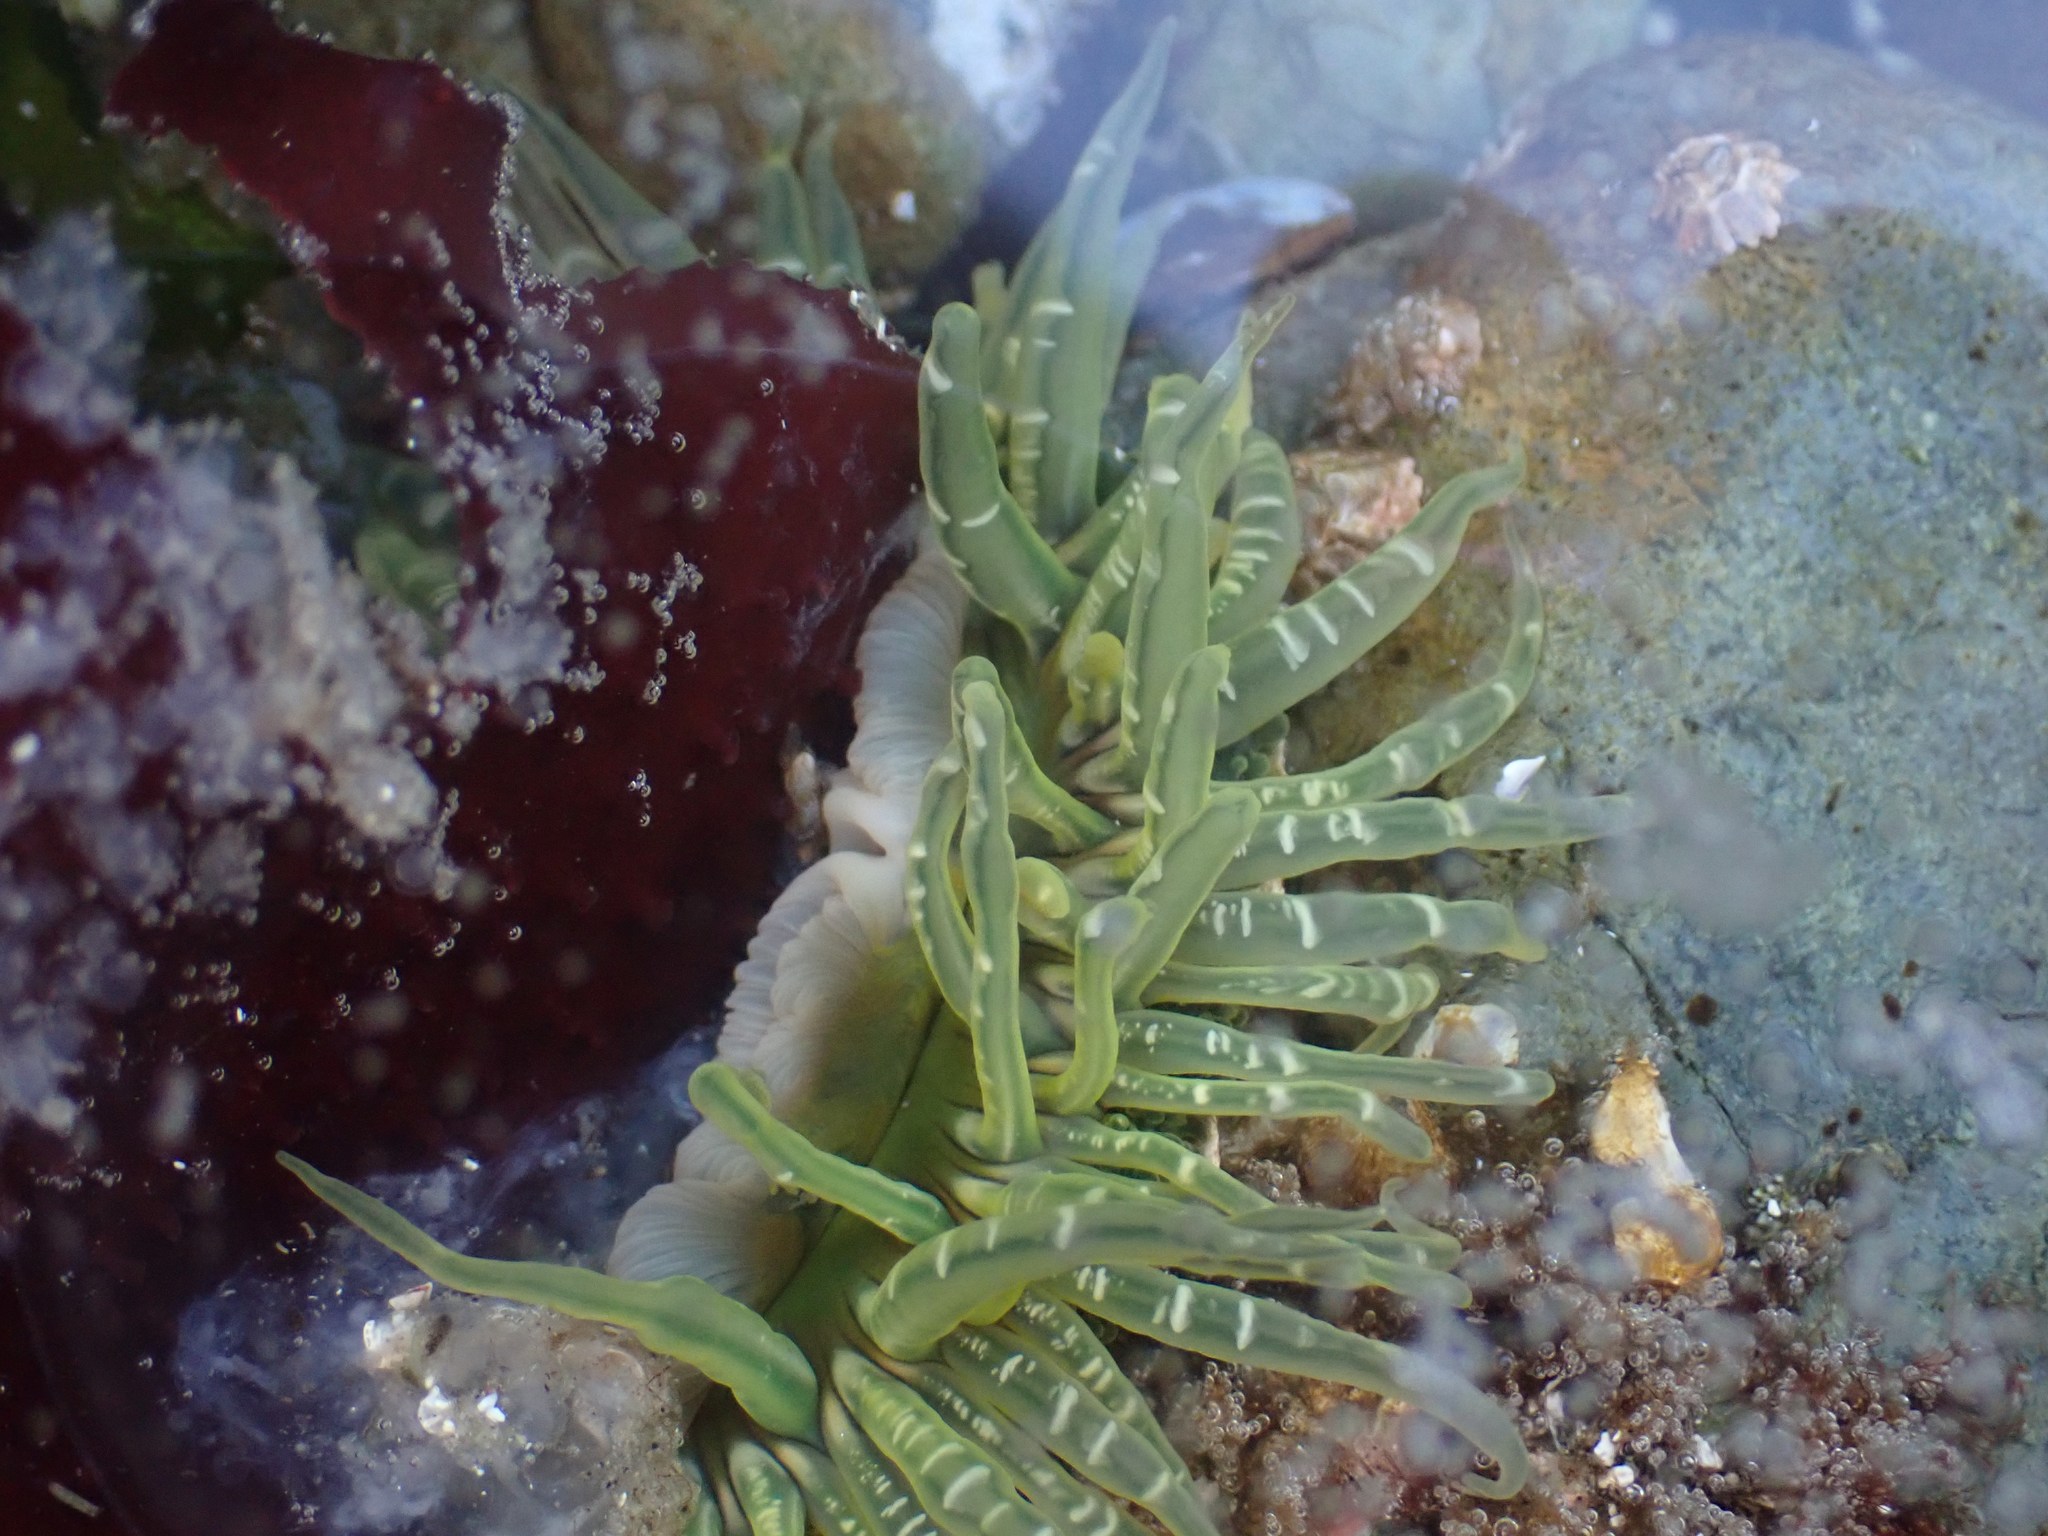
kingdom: Animalia
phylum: Cnidaria
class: Anthozoa
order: Actiniaria
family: Actiniidae
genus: Anthopleura
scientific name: Anthopleura artemisia
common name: Buried sea anemone
